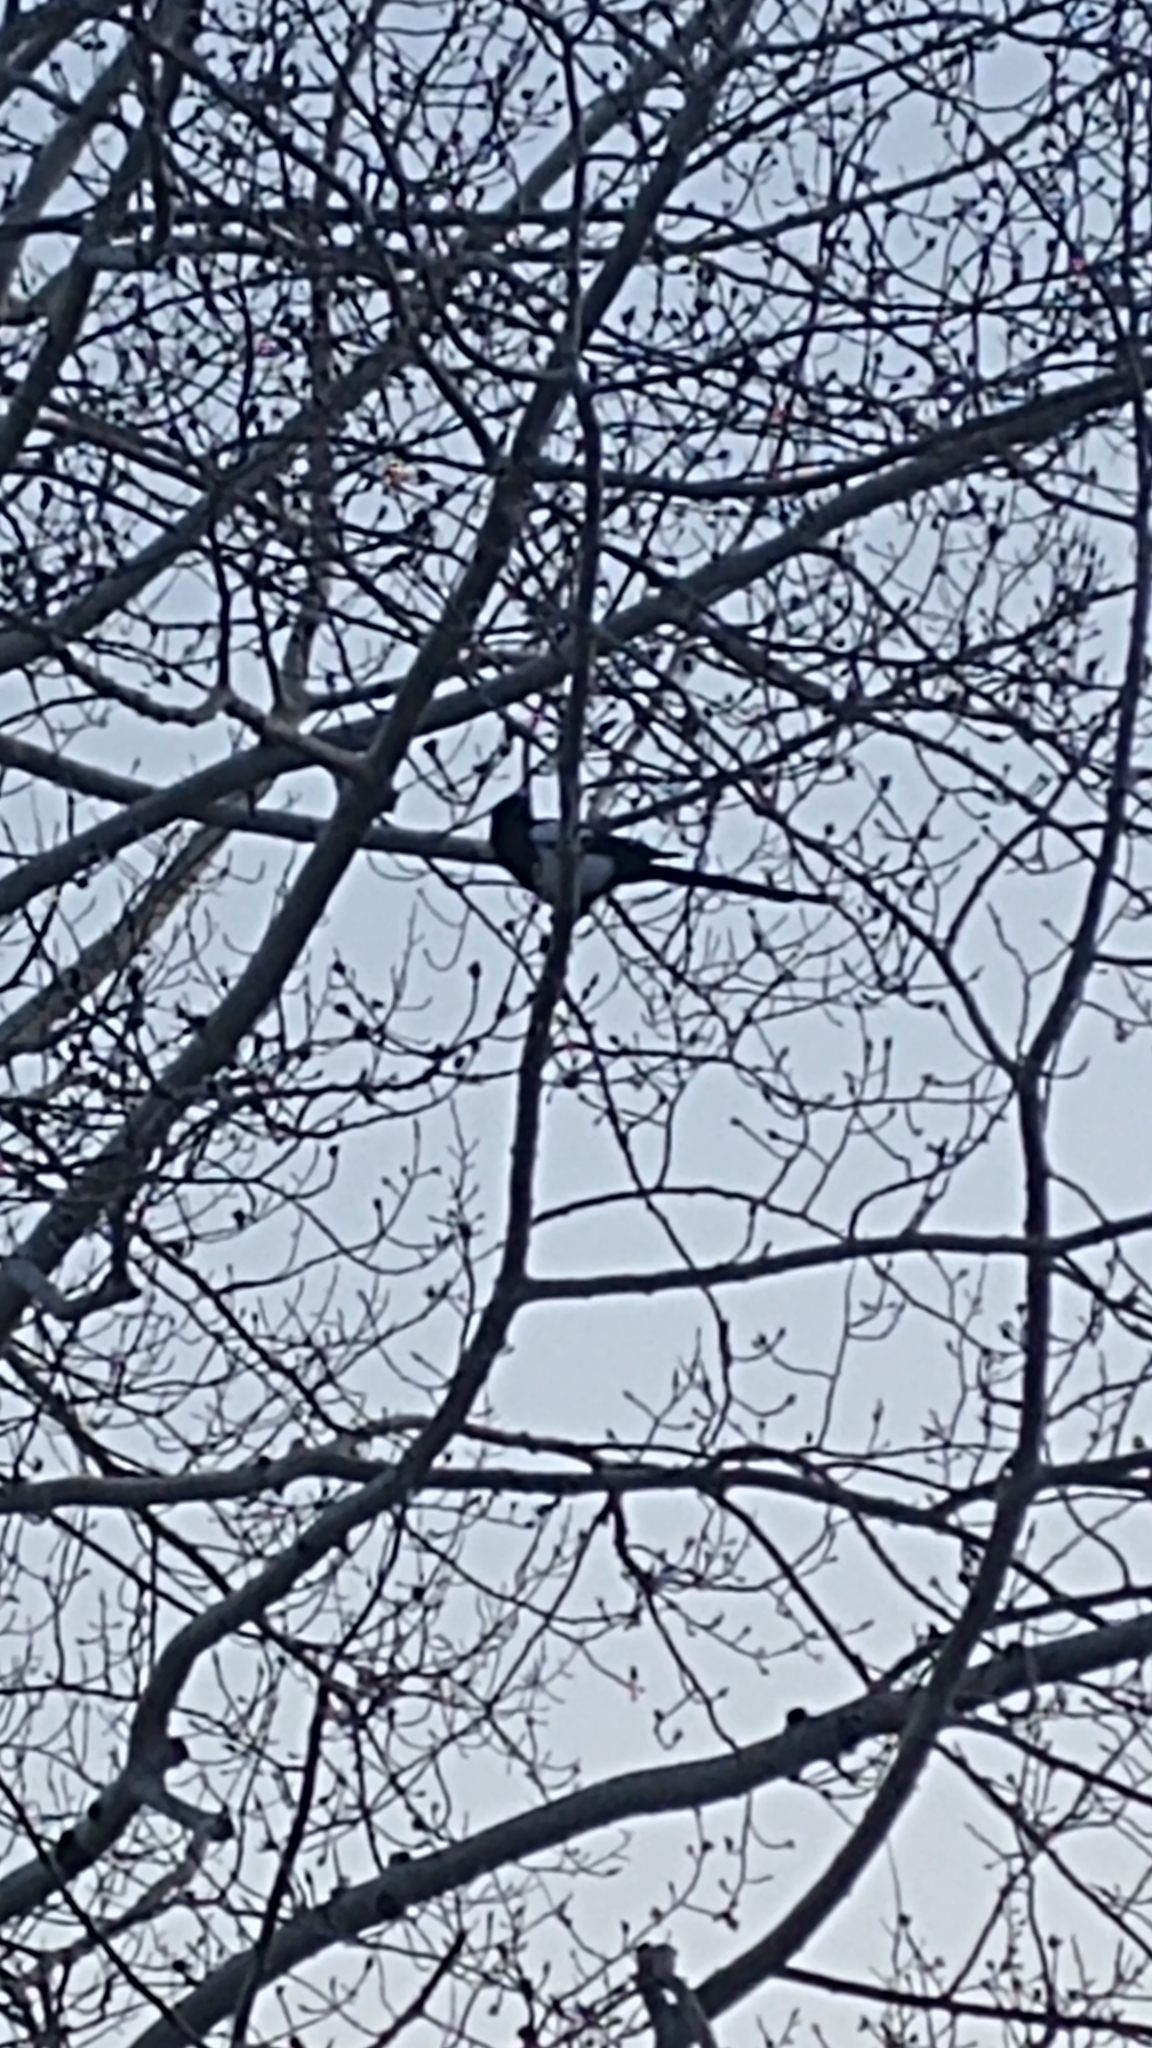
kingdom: Animalia
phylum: Chordata
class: Aves
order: Passeriformes
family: Corvidae
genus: Pica
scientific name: Pica hudsonia
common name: Black-billed magpie
